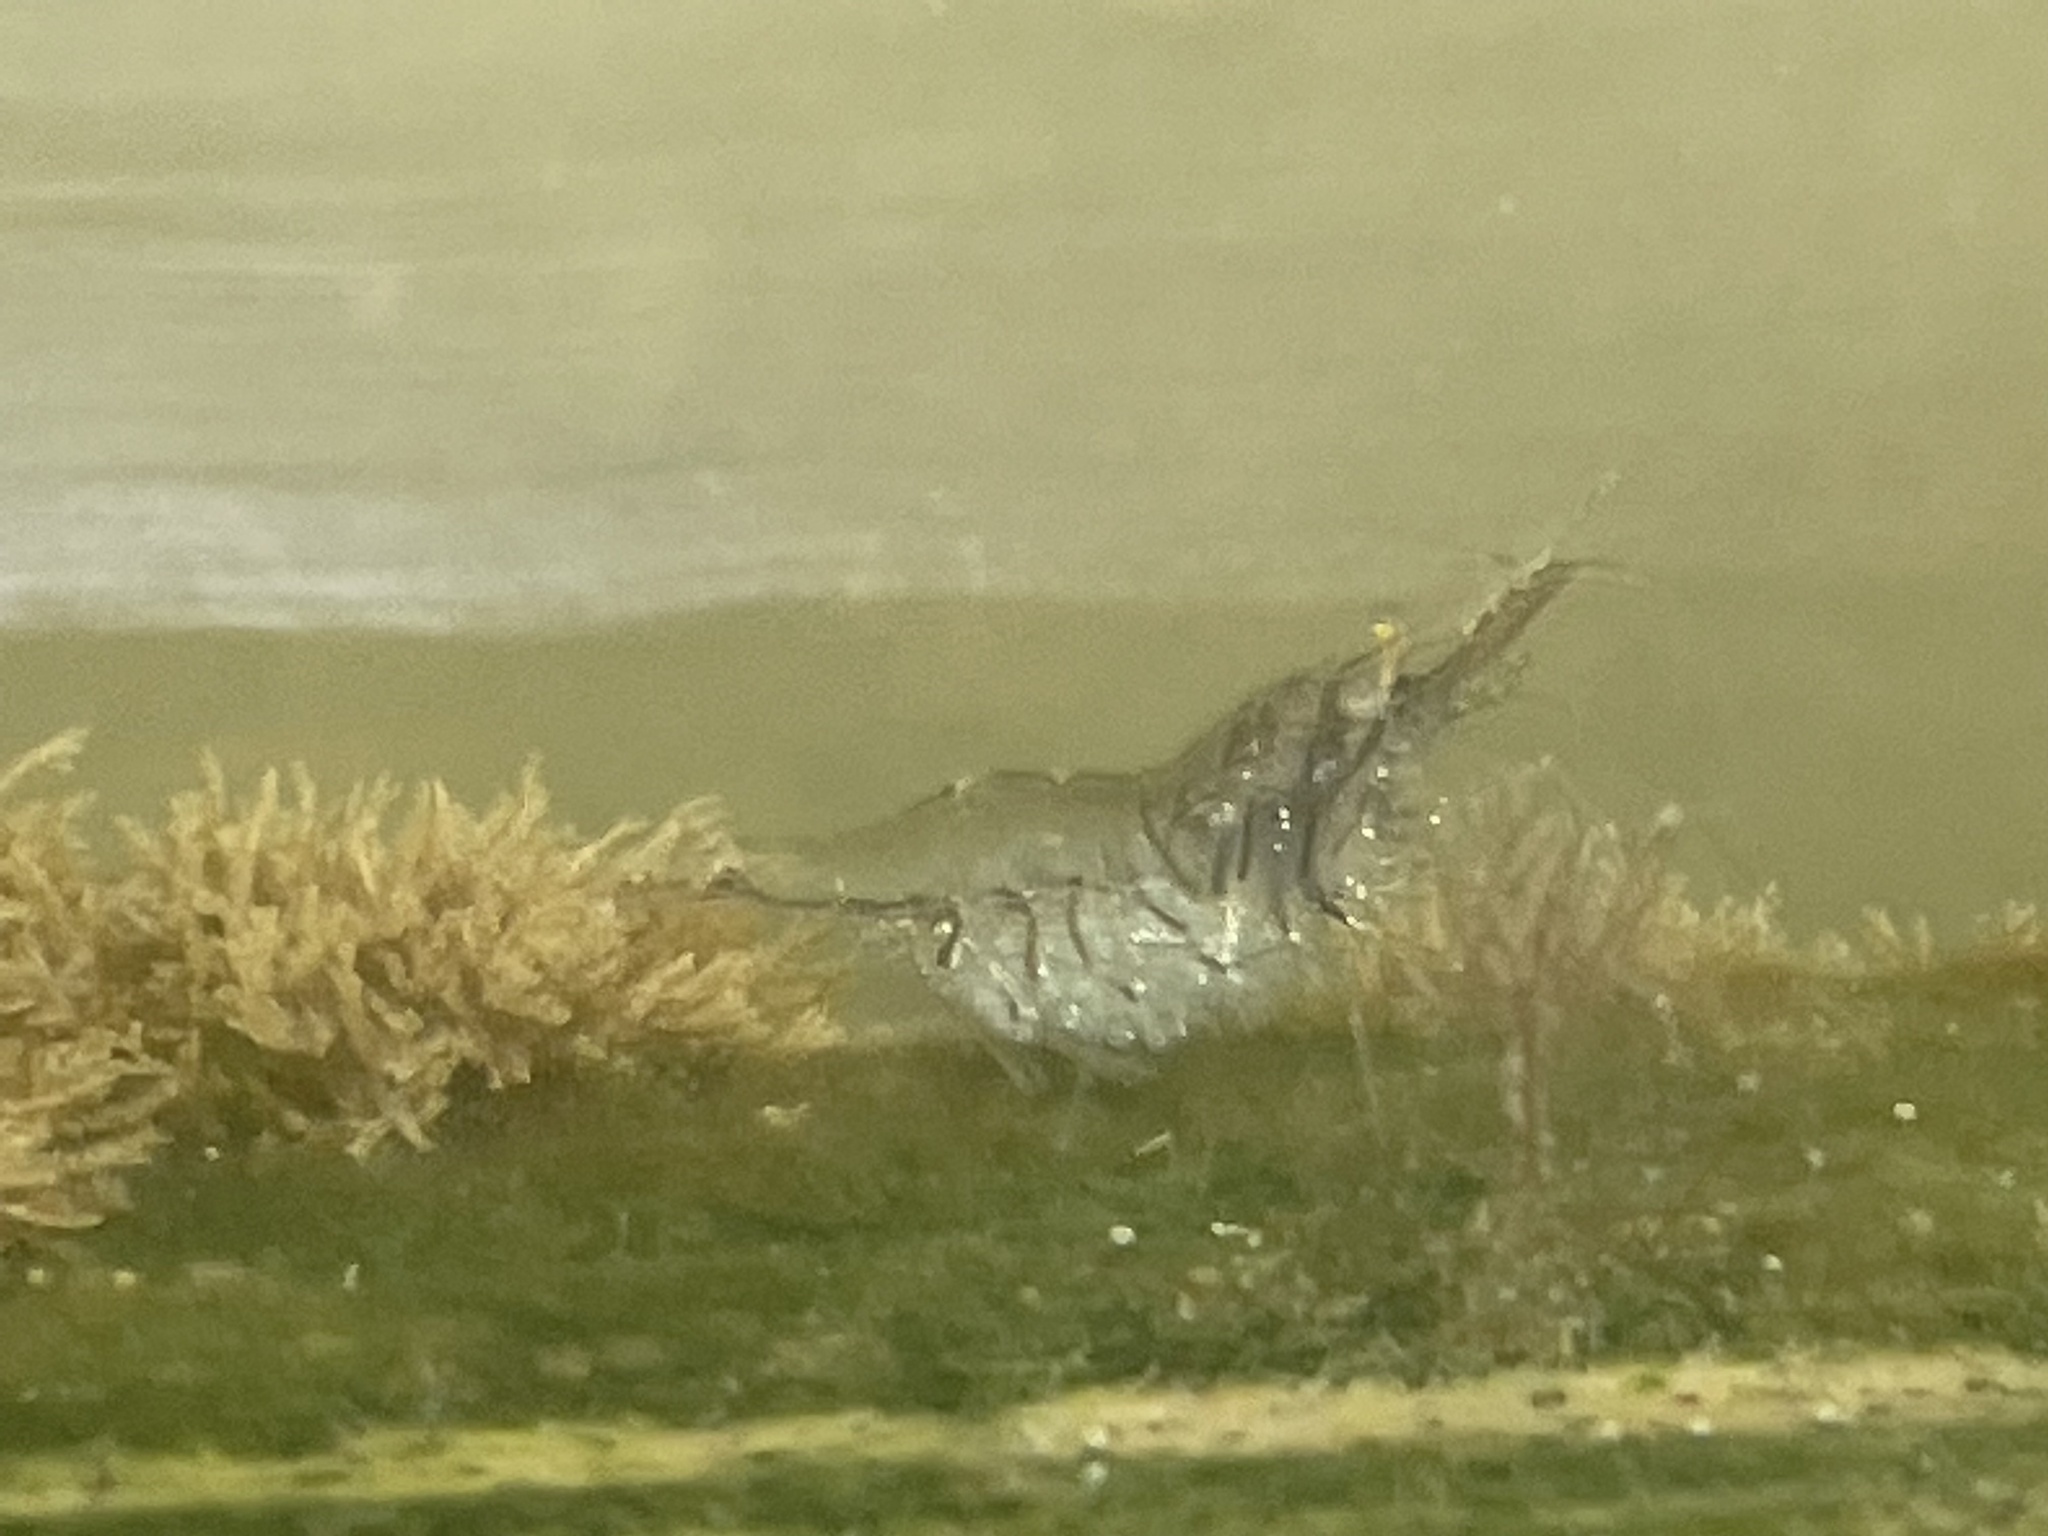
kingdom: Animalia
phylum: Arthropoda
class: Malacostraca
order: Decapoda
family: Palaemonidae
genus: Palaemon
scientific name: Palaemon paludosus
